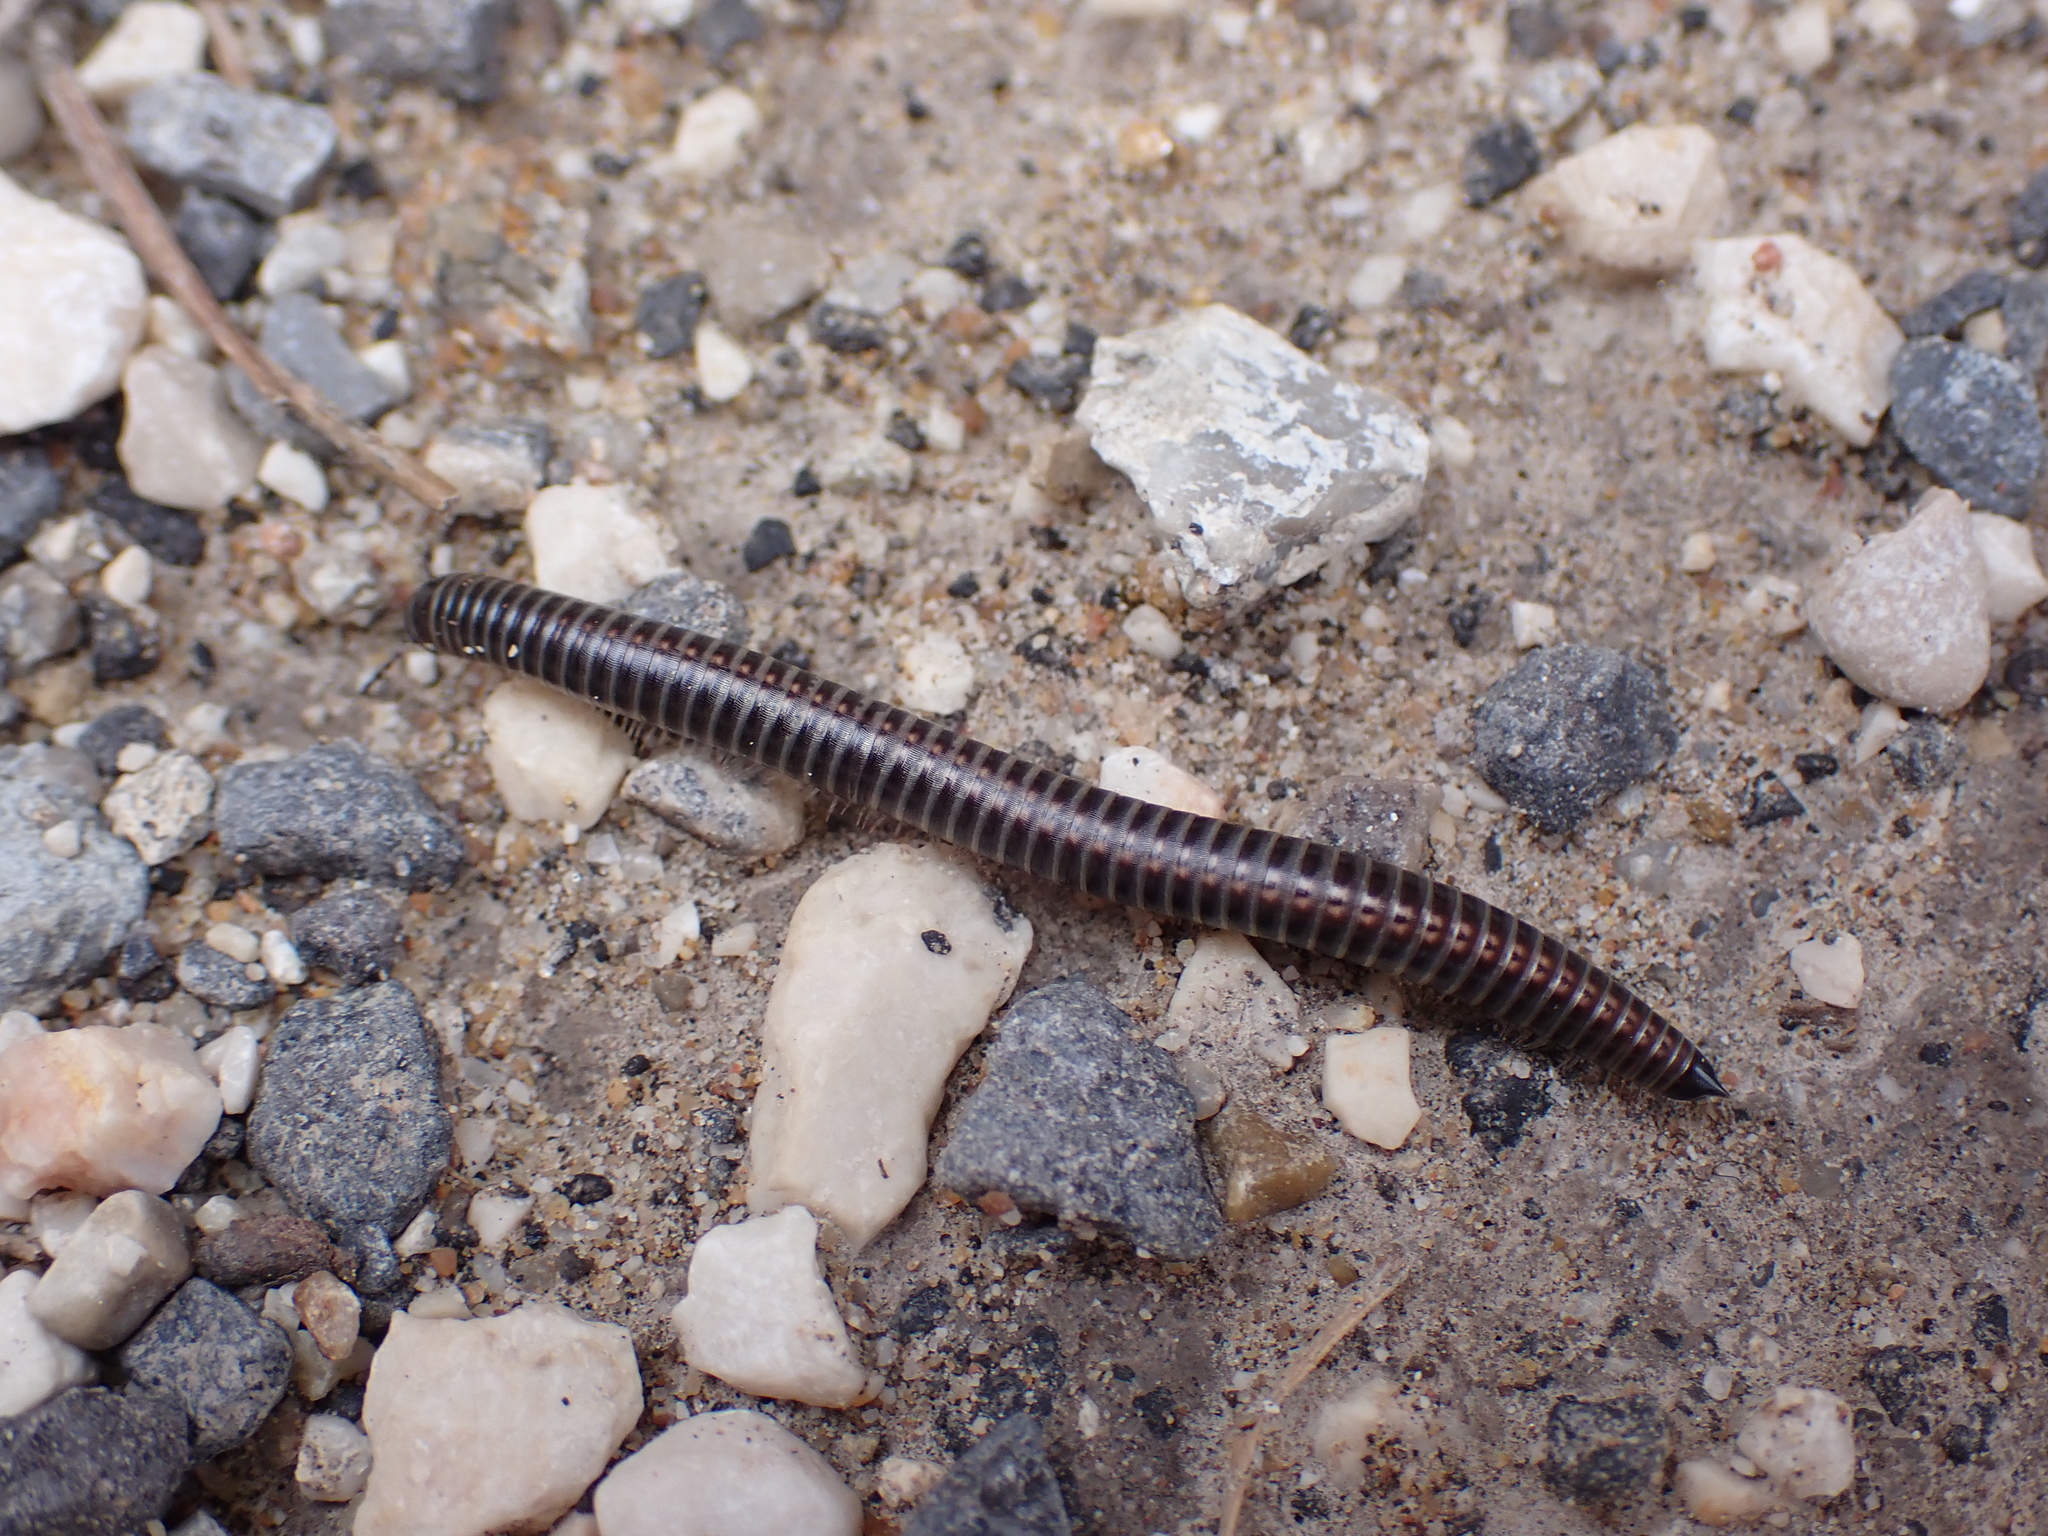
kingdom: Animalia
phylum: Arthropoda
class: Diplopoda
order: Julida
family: Julidae
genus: Ommatoiulus
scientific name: Ommatoiulus sabulosus
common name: Striped millipede
